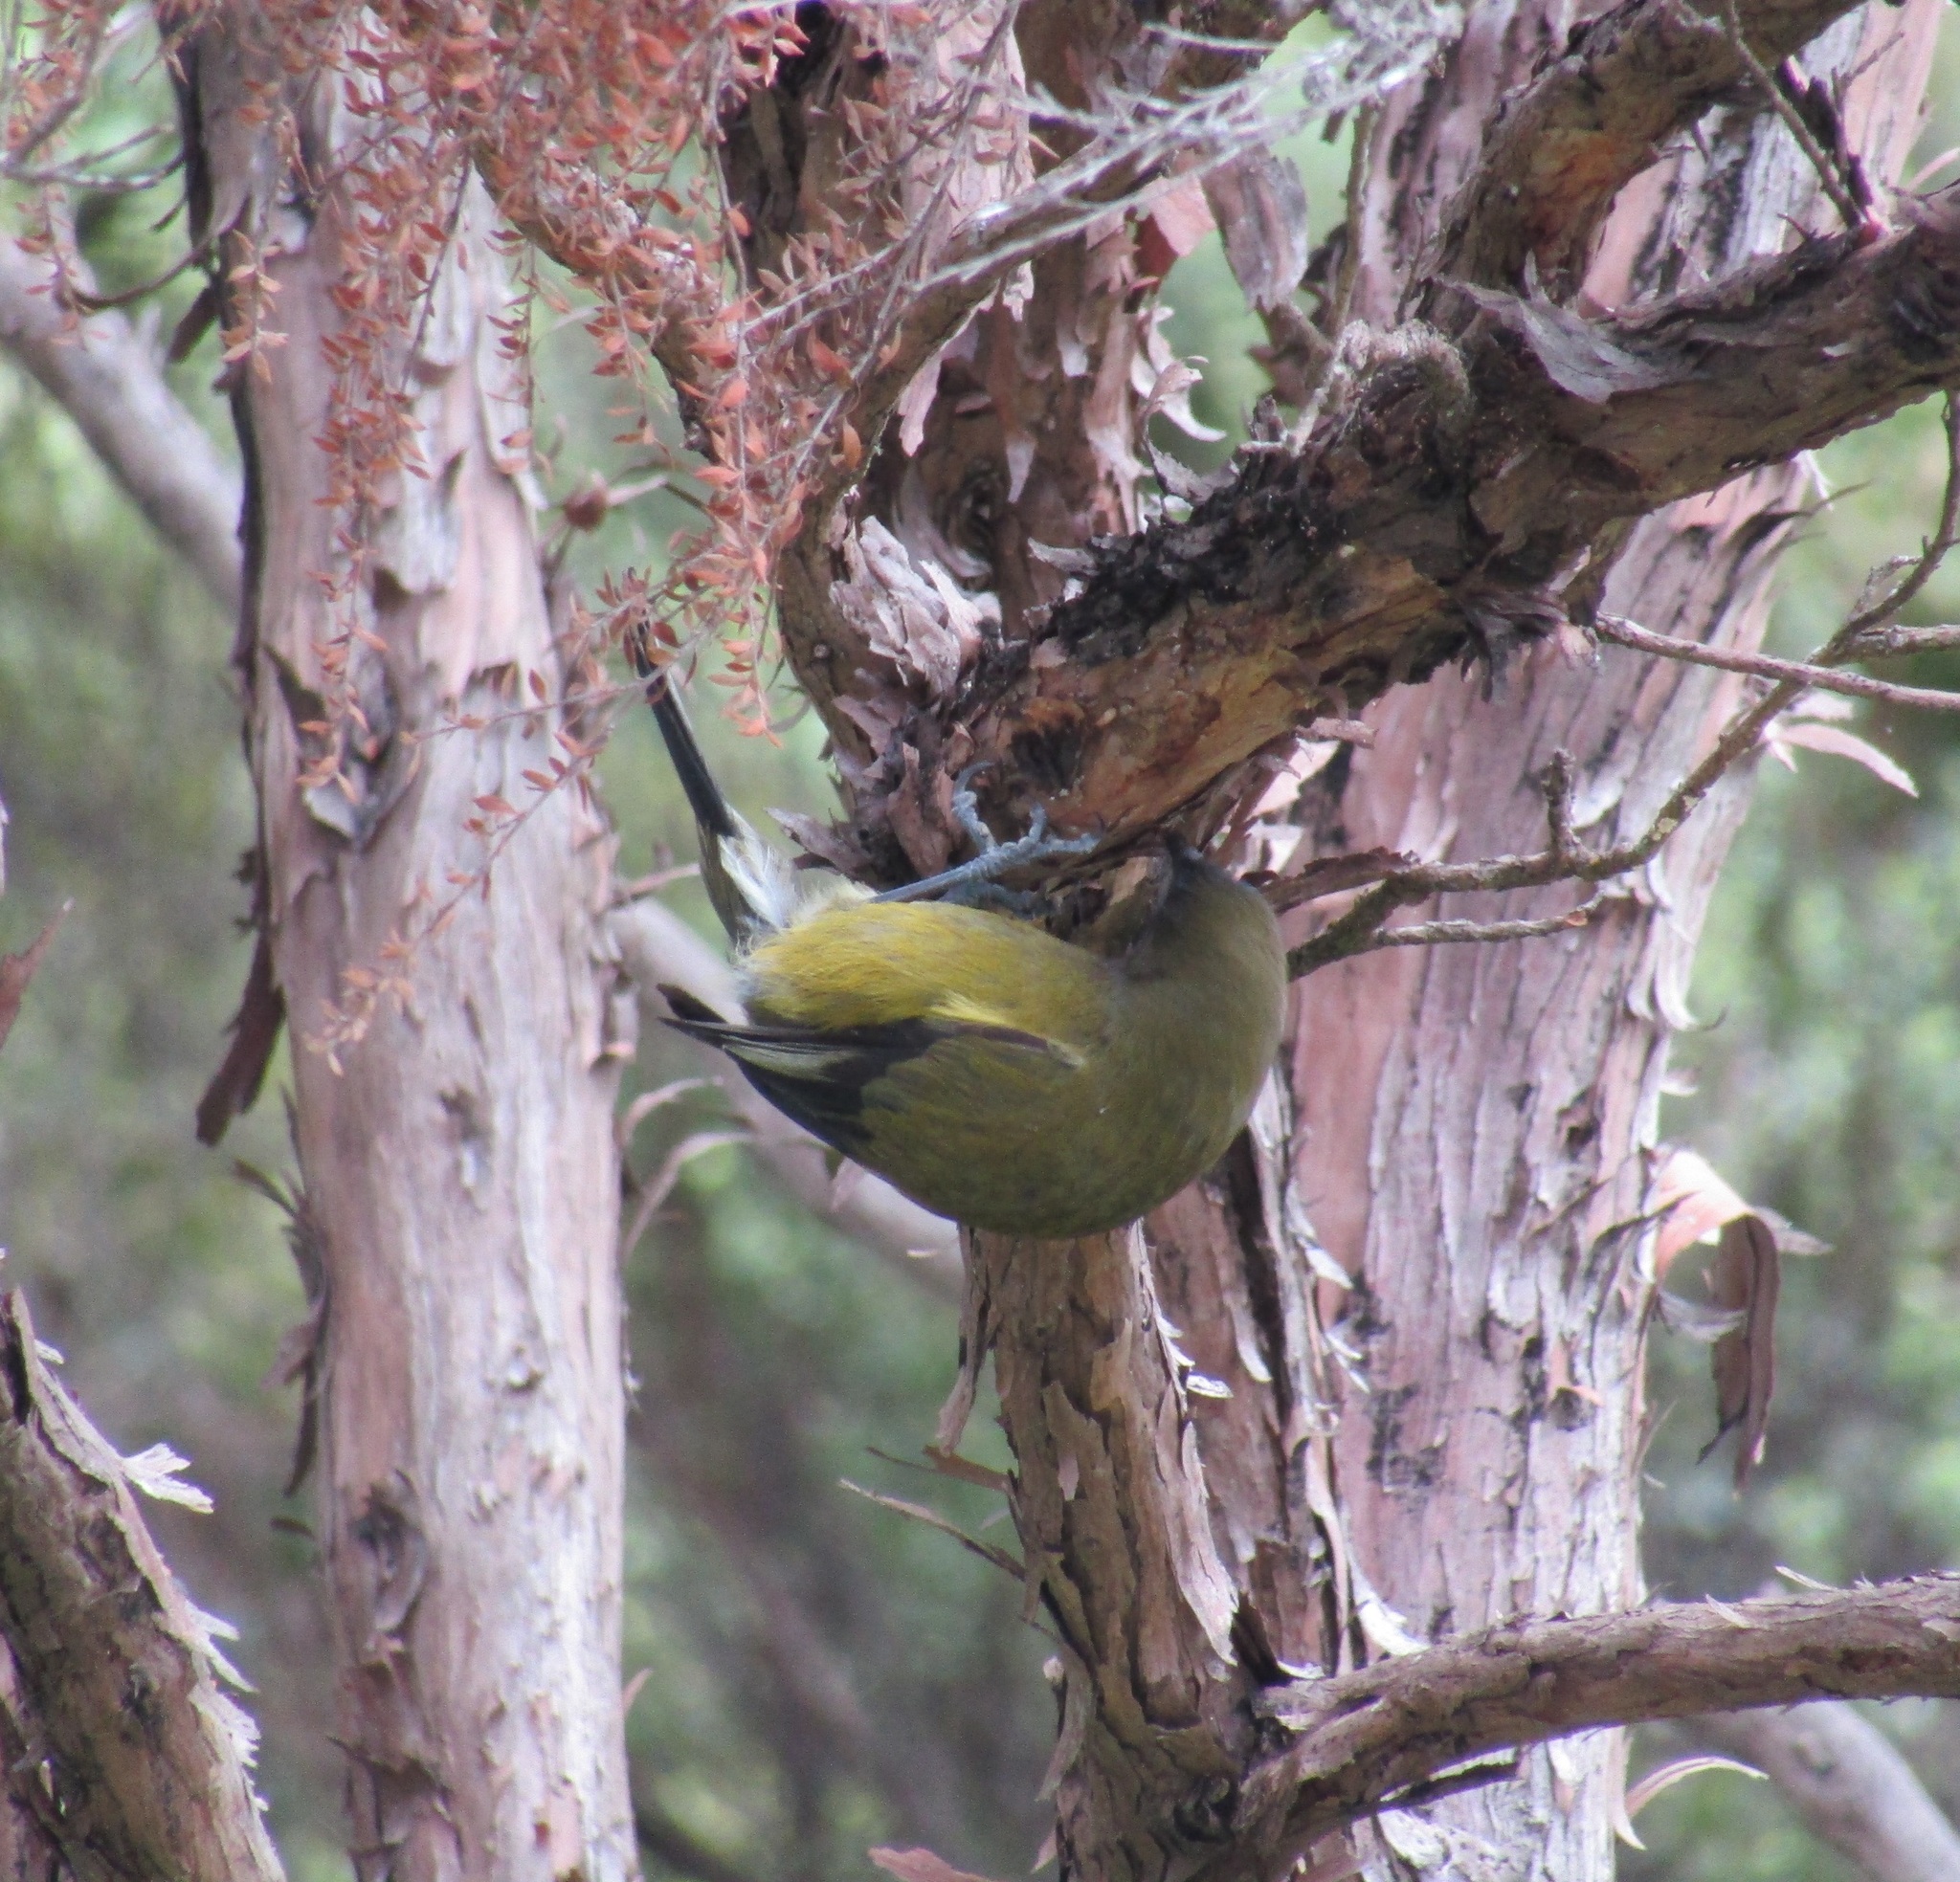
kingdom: Animalia
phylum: Chordata
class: Aves
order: Passeriformes
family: Meliphagidae
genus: Anthornis
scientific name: Anthornis melanura
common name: New zealand bellbird
